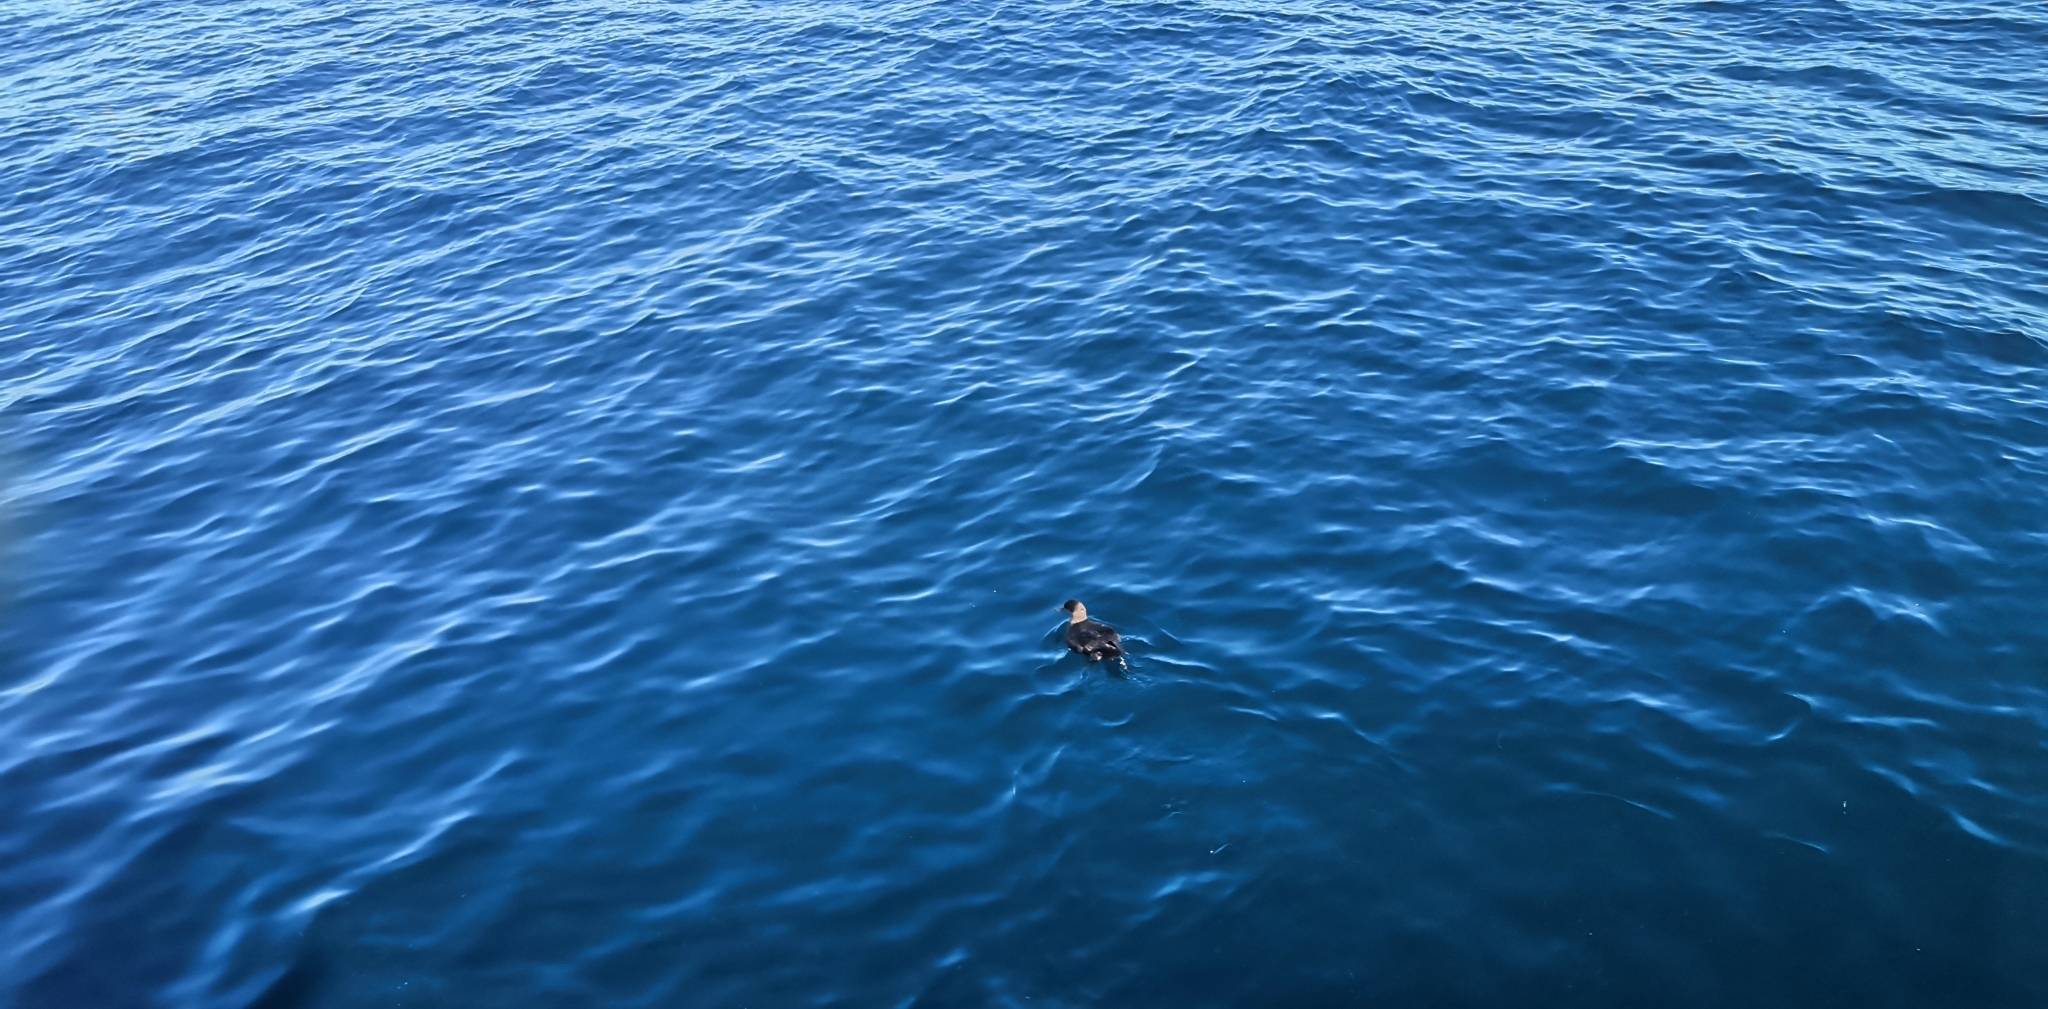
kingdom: Animalia
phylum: Chordata
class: Aves
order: Procellariiformes
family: Procellariidae
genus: Puffinus
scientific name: Puffinus gavia
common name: Fluttering shearwater
